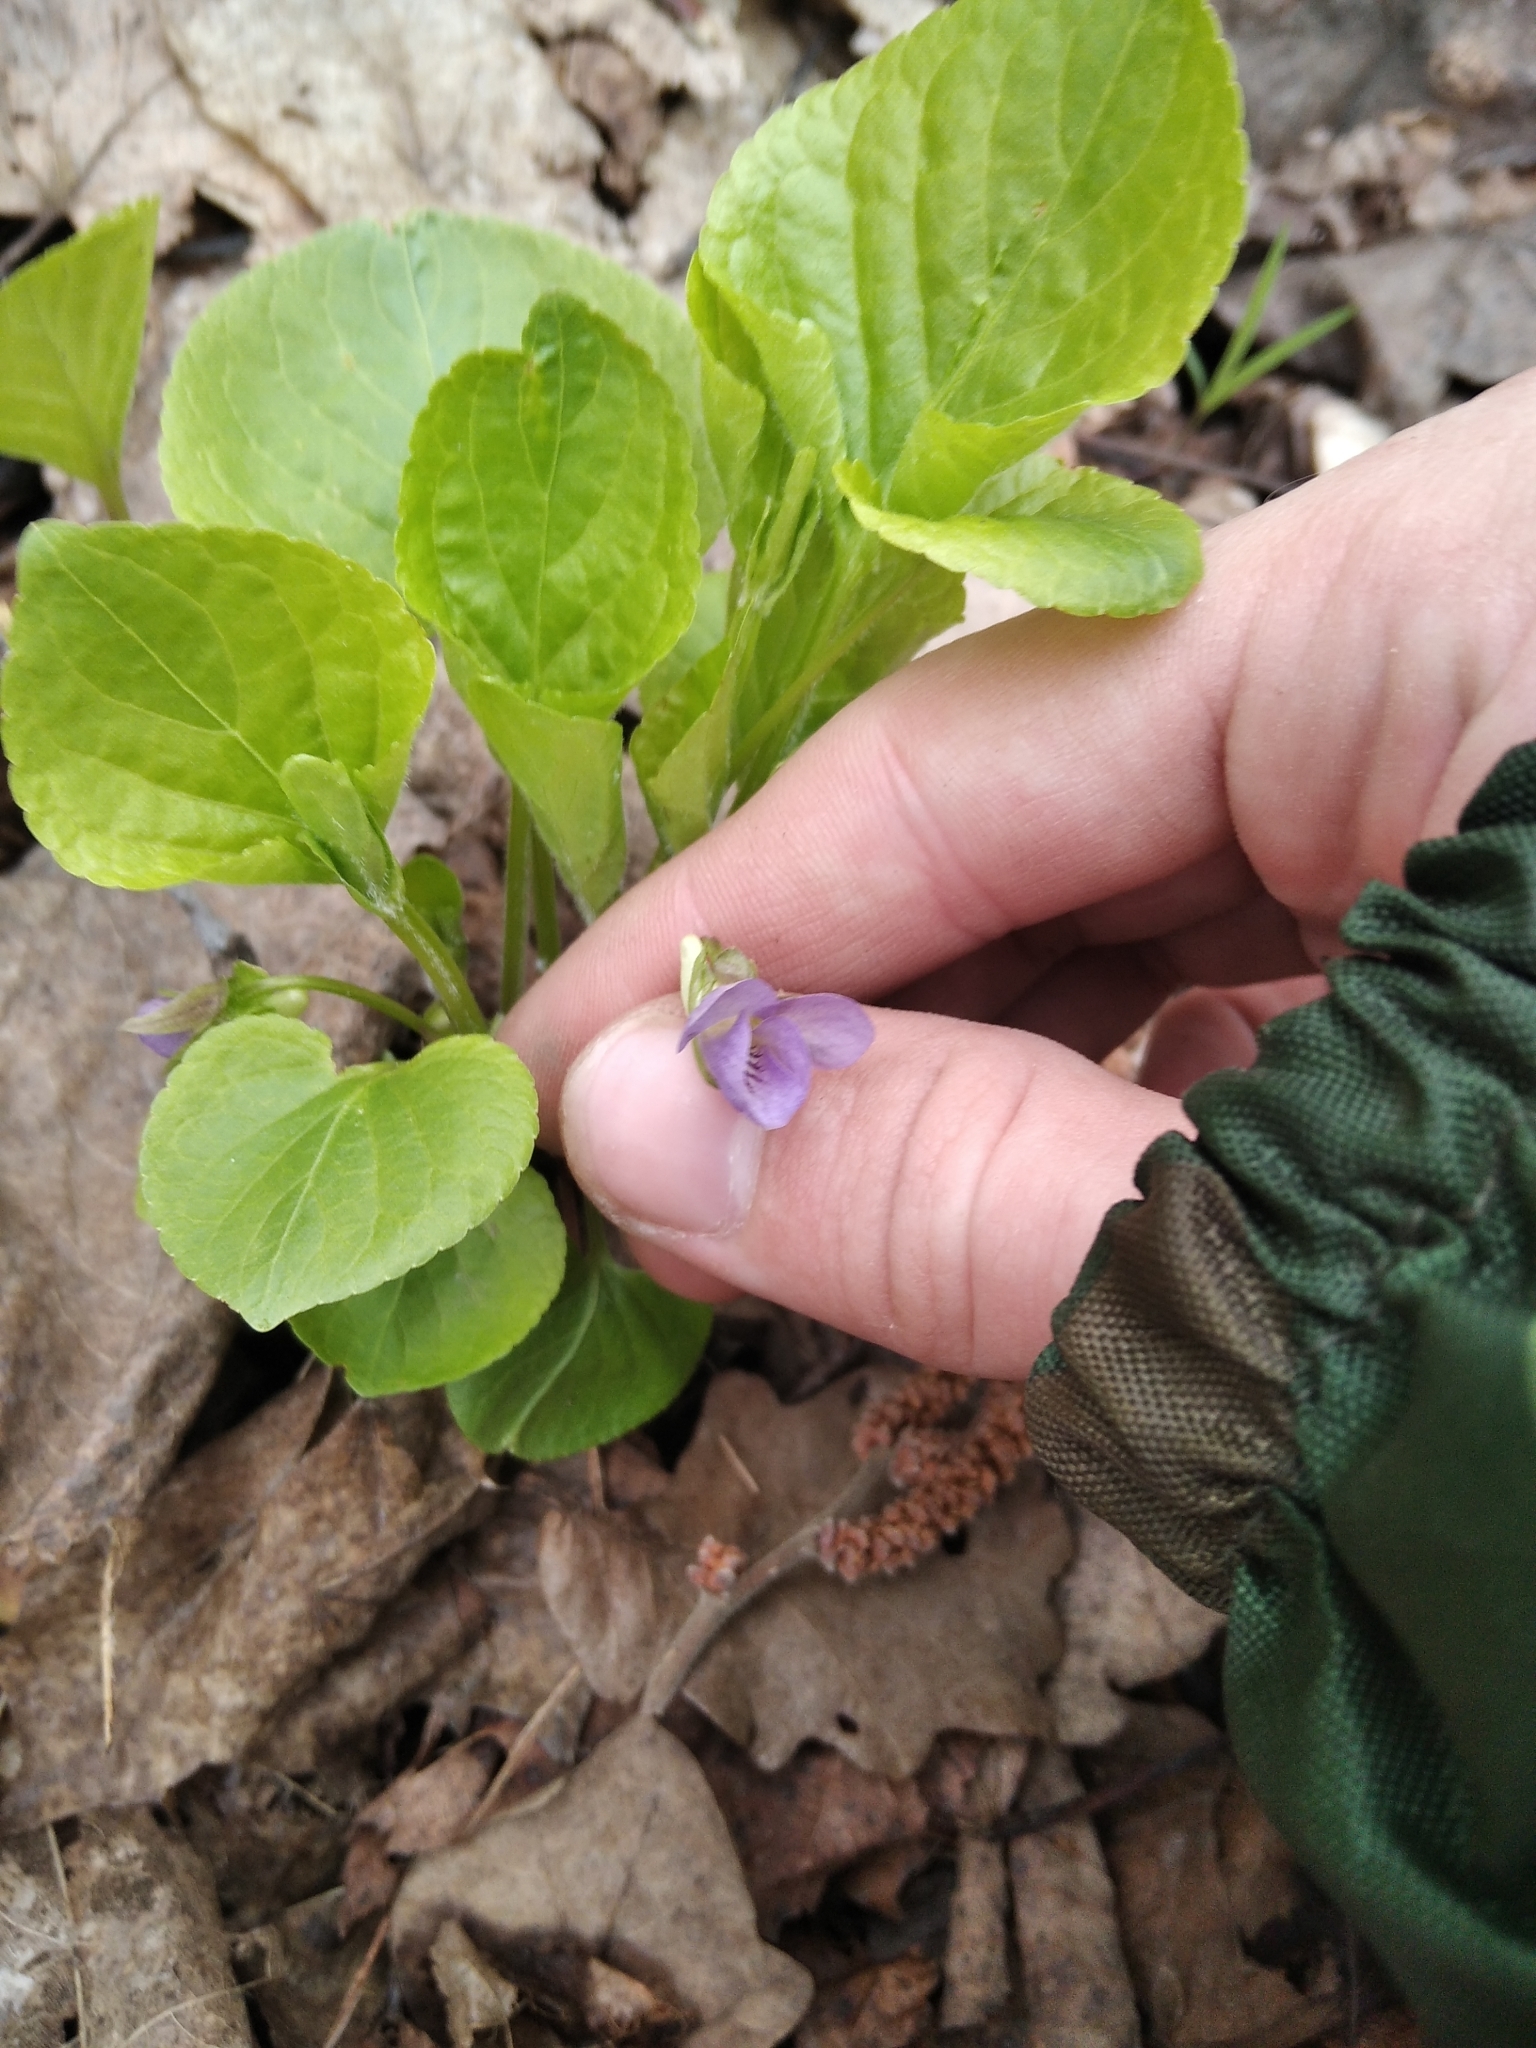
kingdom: Plantae
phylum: Tracheophyta
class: Magnoliopsida
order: Malpighiales
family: Violaceae
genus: Viola
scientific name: Viola mirabilis
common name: Wonder violet
